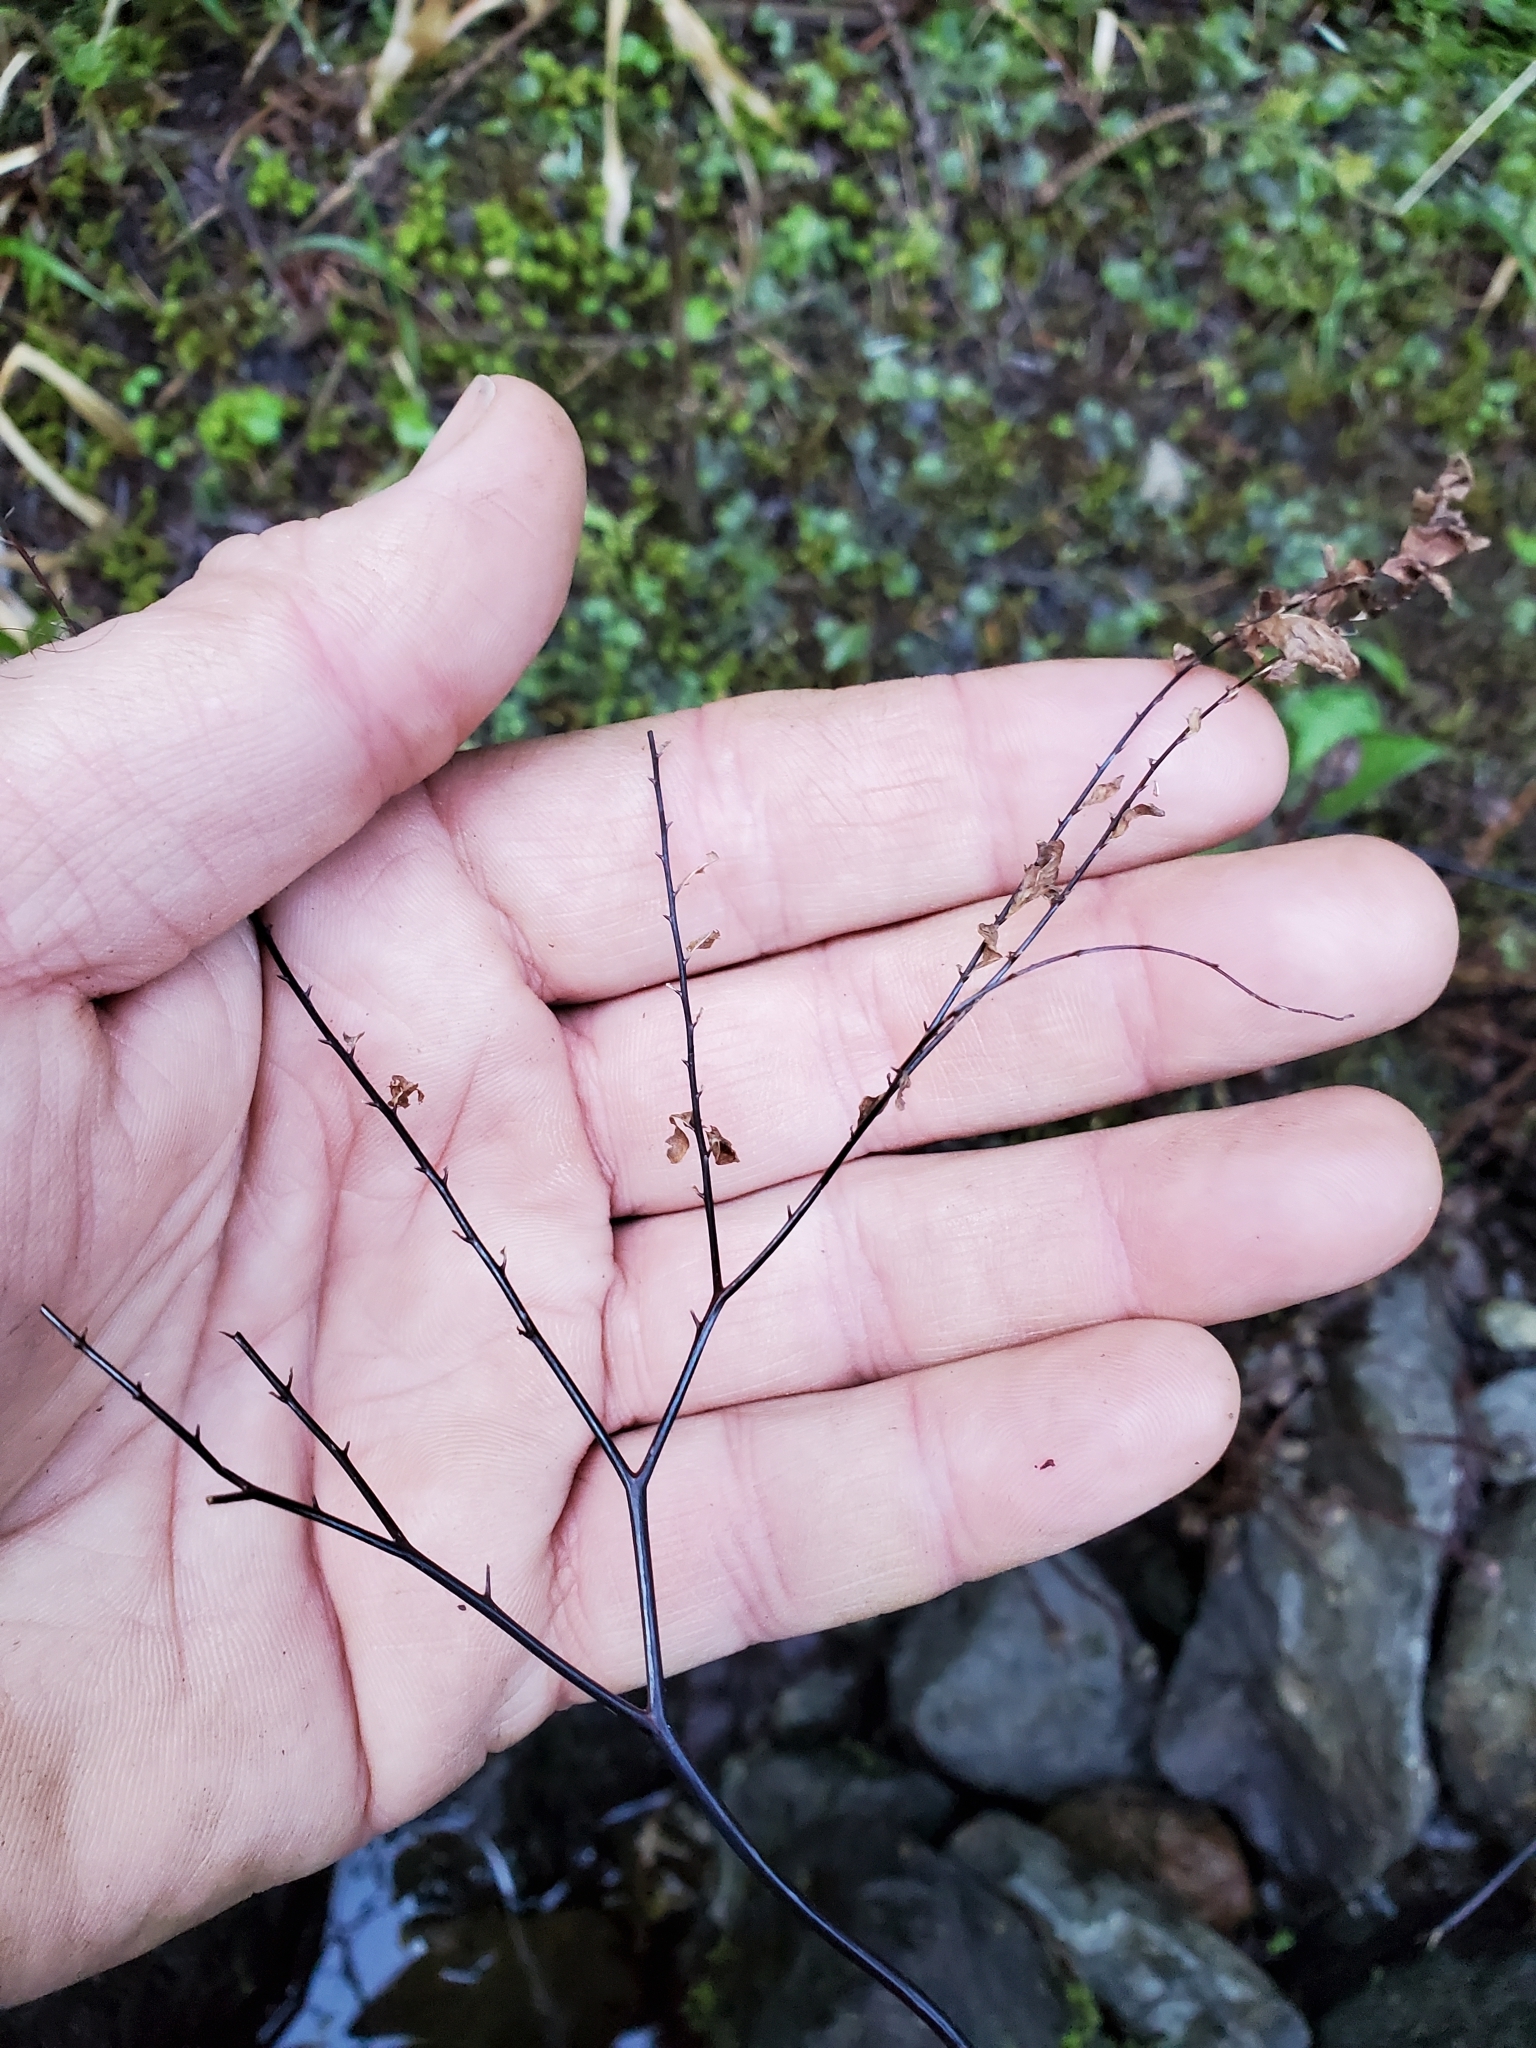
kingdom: Plantae
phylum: Tracheophyta
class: Polypodiopsida
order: Polypodiales
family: Pteridaceae
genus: Adiantum
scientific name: Adiantum aleuticum
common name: Aleutian maidenhair fern
